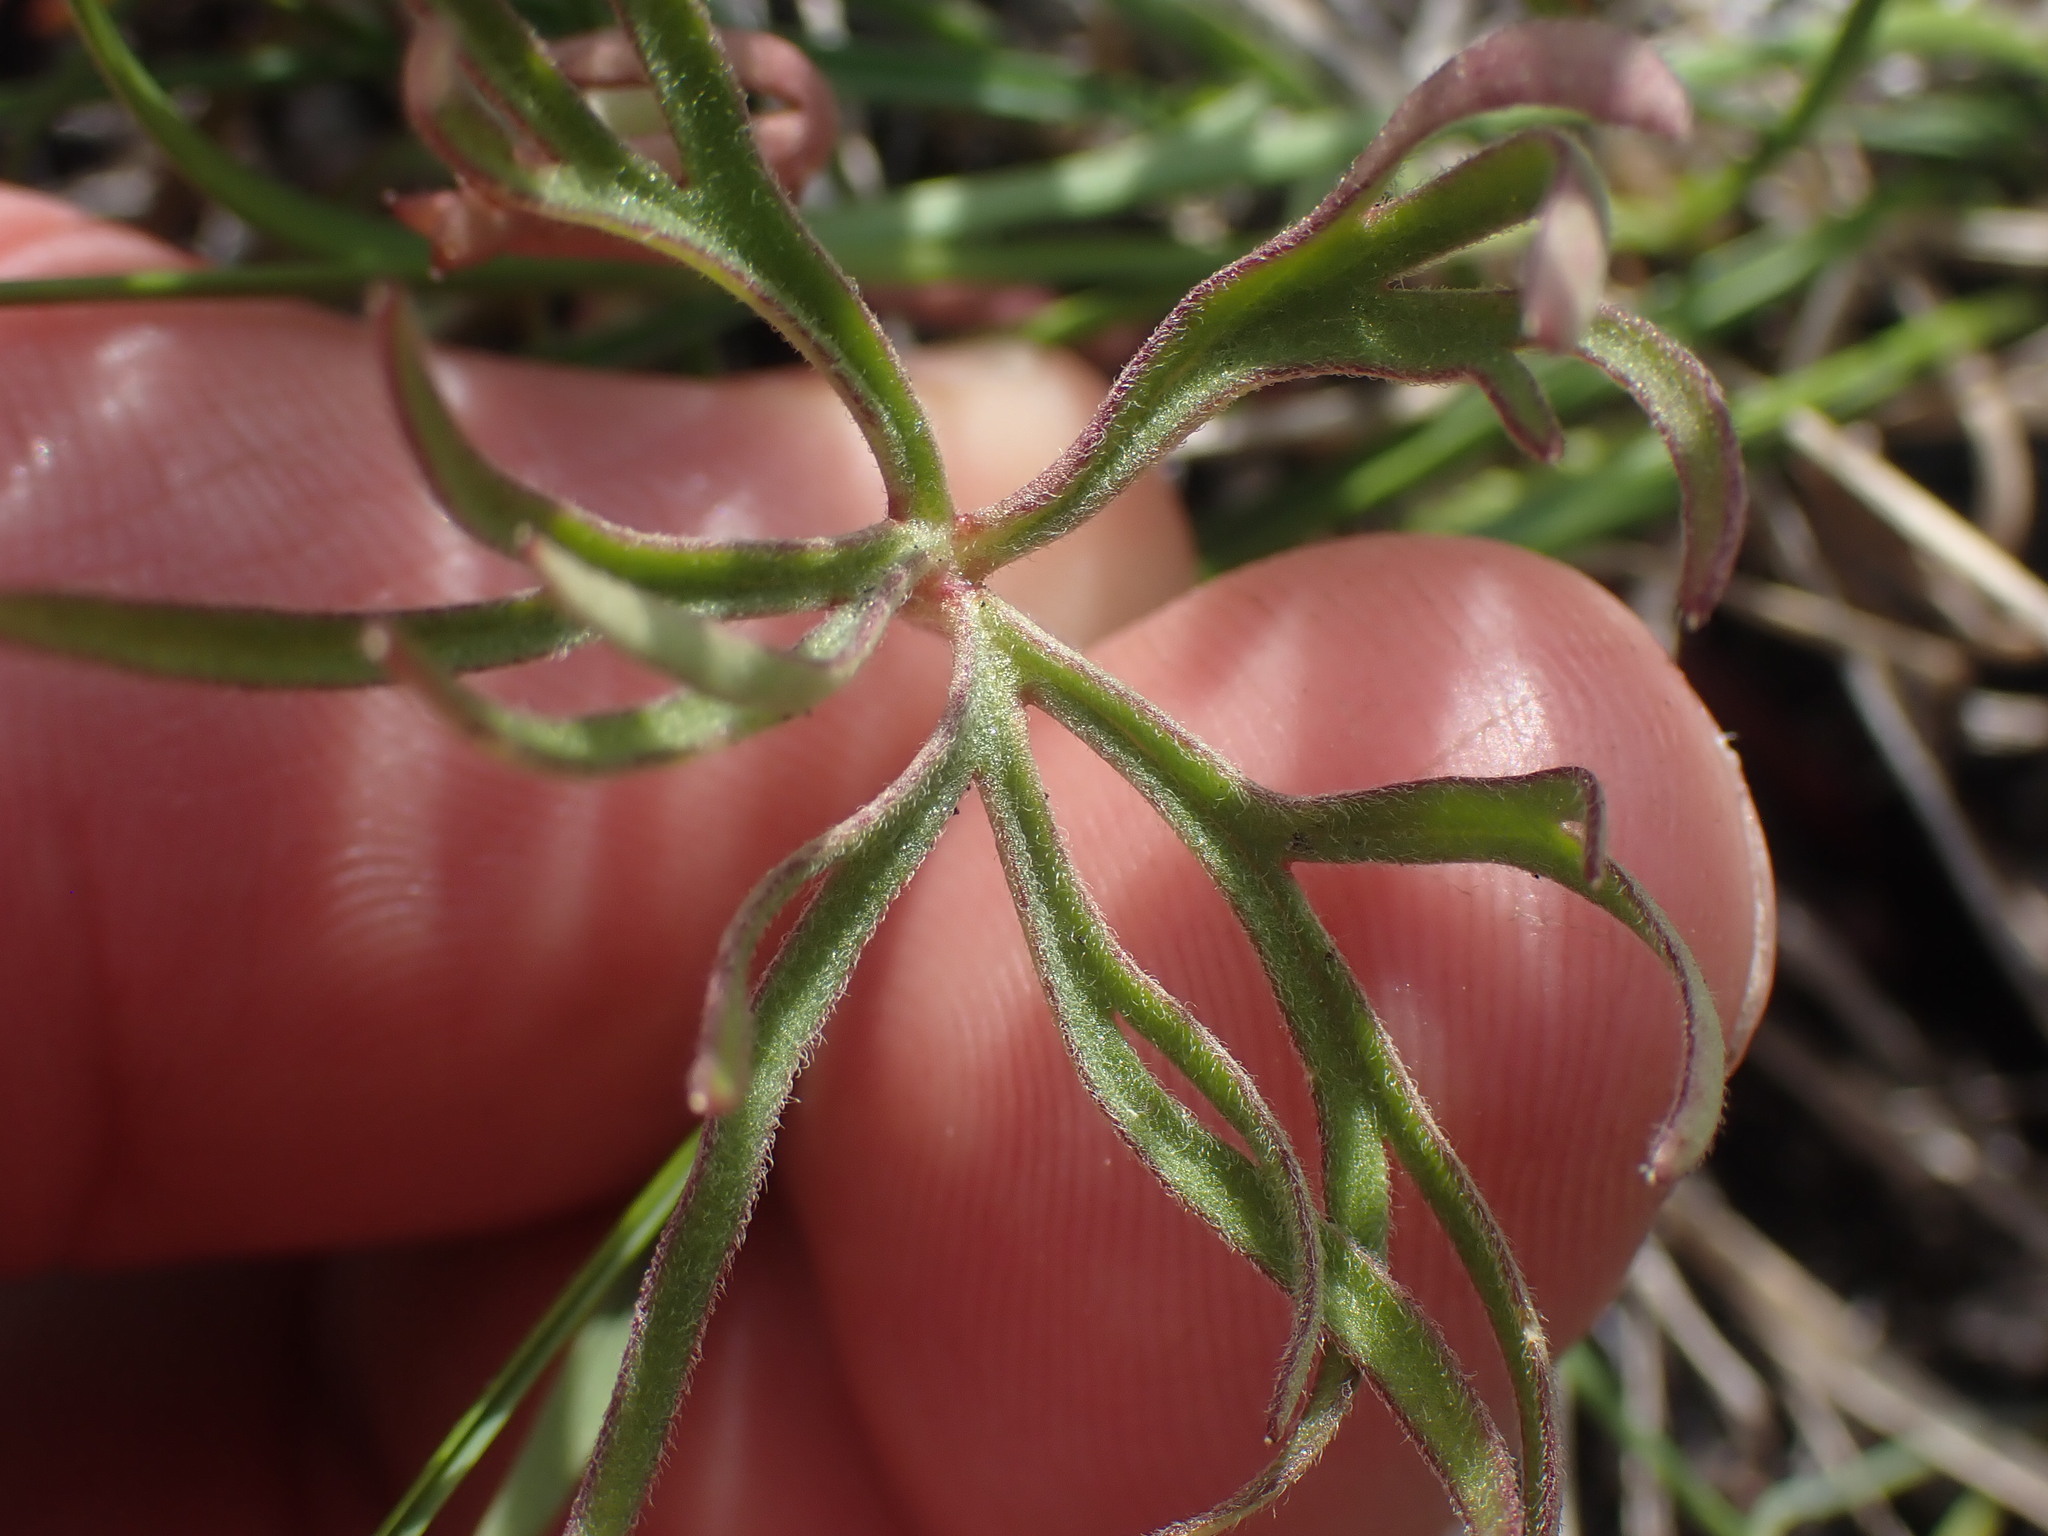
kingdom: Plantae
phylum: Tracheophyta
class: Magnoliopsida
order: Ranunculales
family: Ranunculaceae
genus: Delphinium
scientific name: Delphinium nuttallianum
